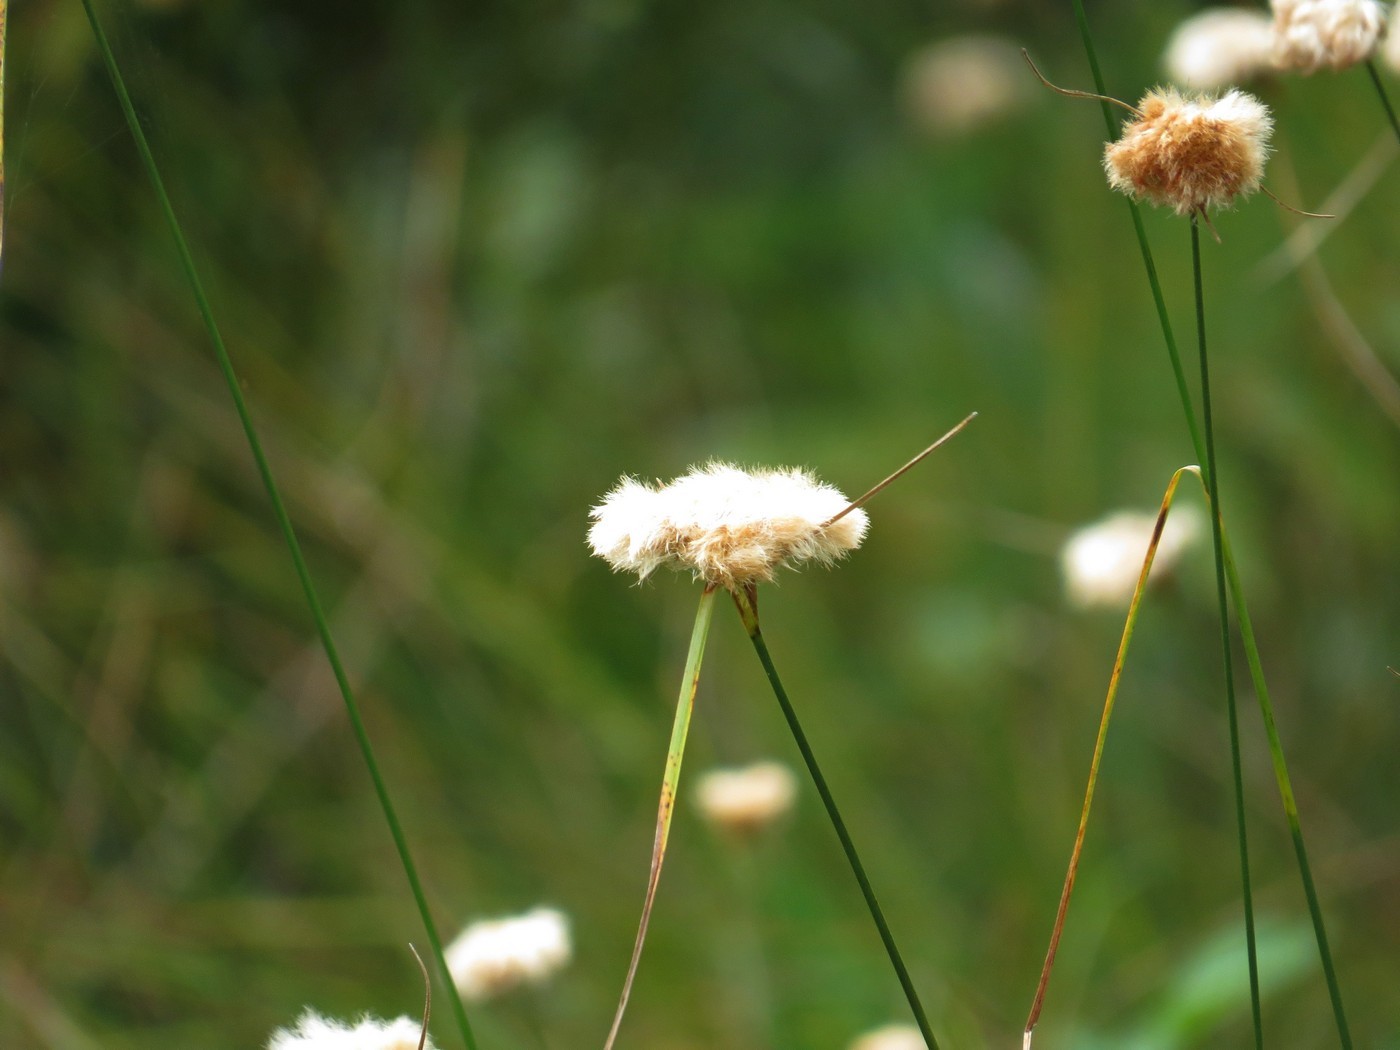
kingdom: Plantae
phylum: Tracheophyta
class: Liliopsida
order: Poales
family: Cyperaceae
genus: Eriophorum
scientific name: Eriophorum virginicum
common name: Tawny cottongrass
